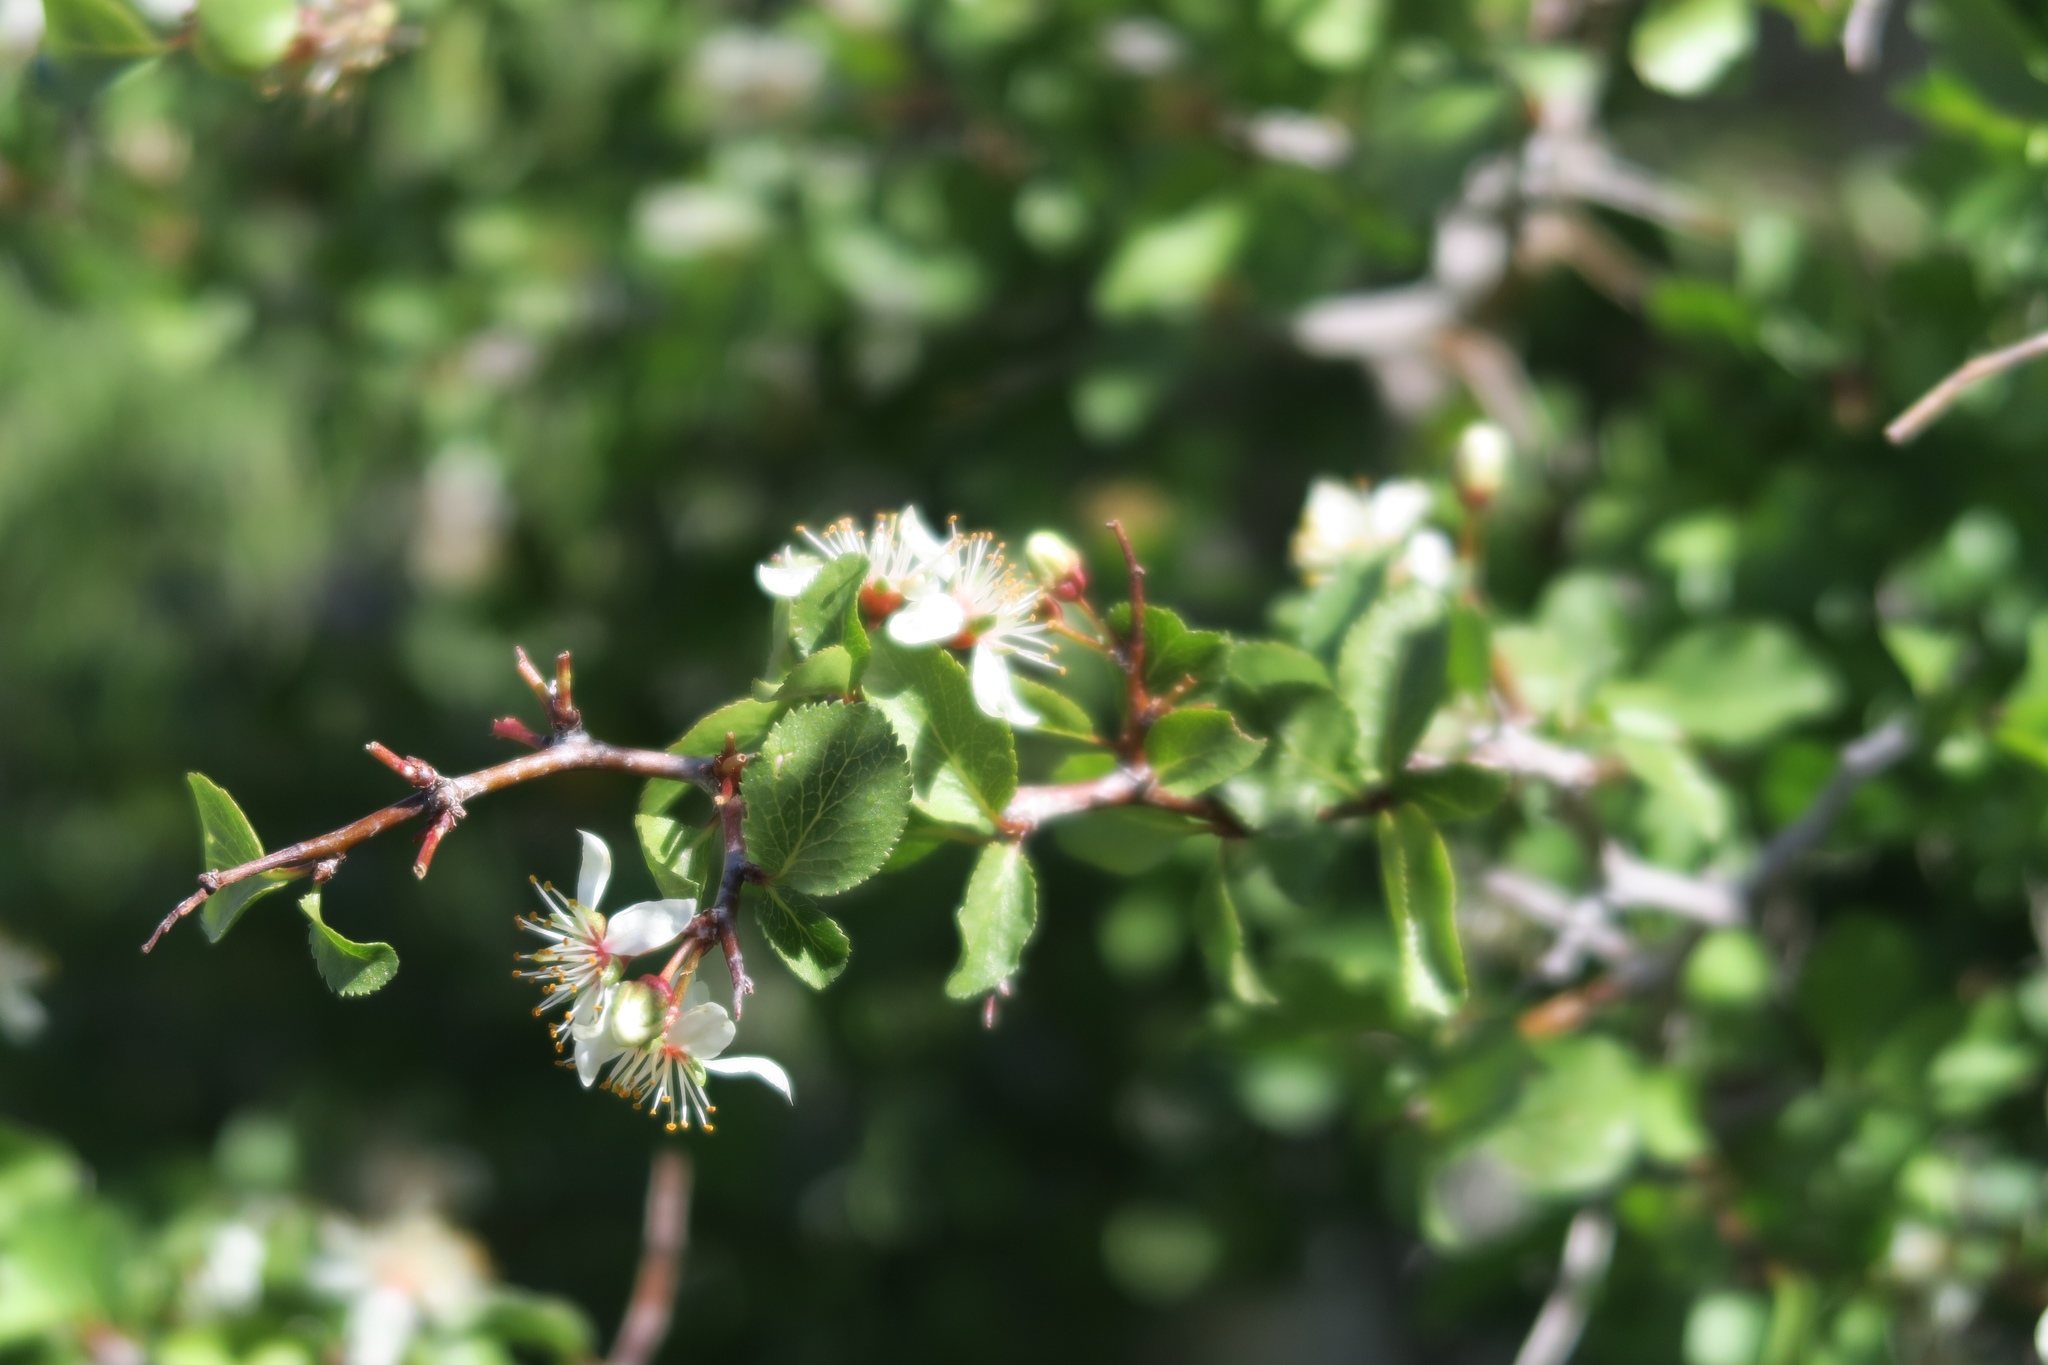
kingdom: Plantae
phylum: Tracheophyta
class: Magnoliopsida
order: Rosales
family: Rosaceae
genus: Prunus
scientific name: Prunus fremontii
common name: Desert apricot
